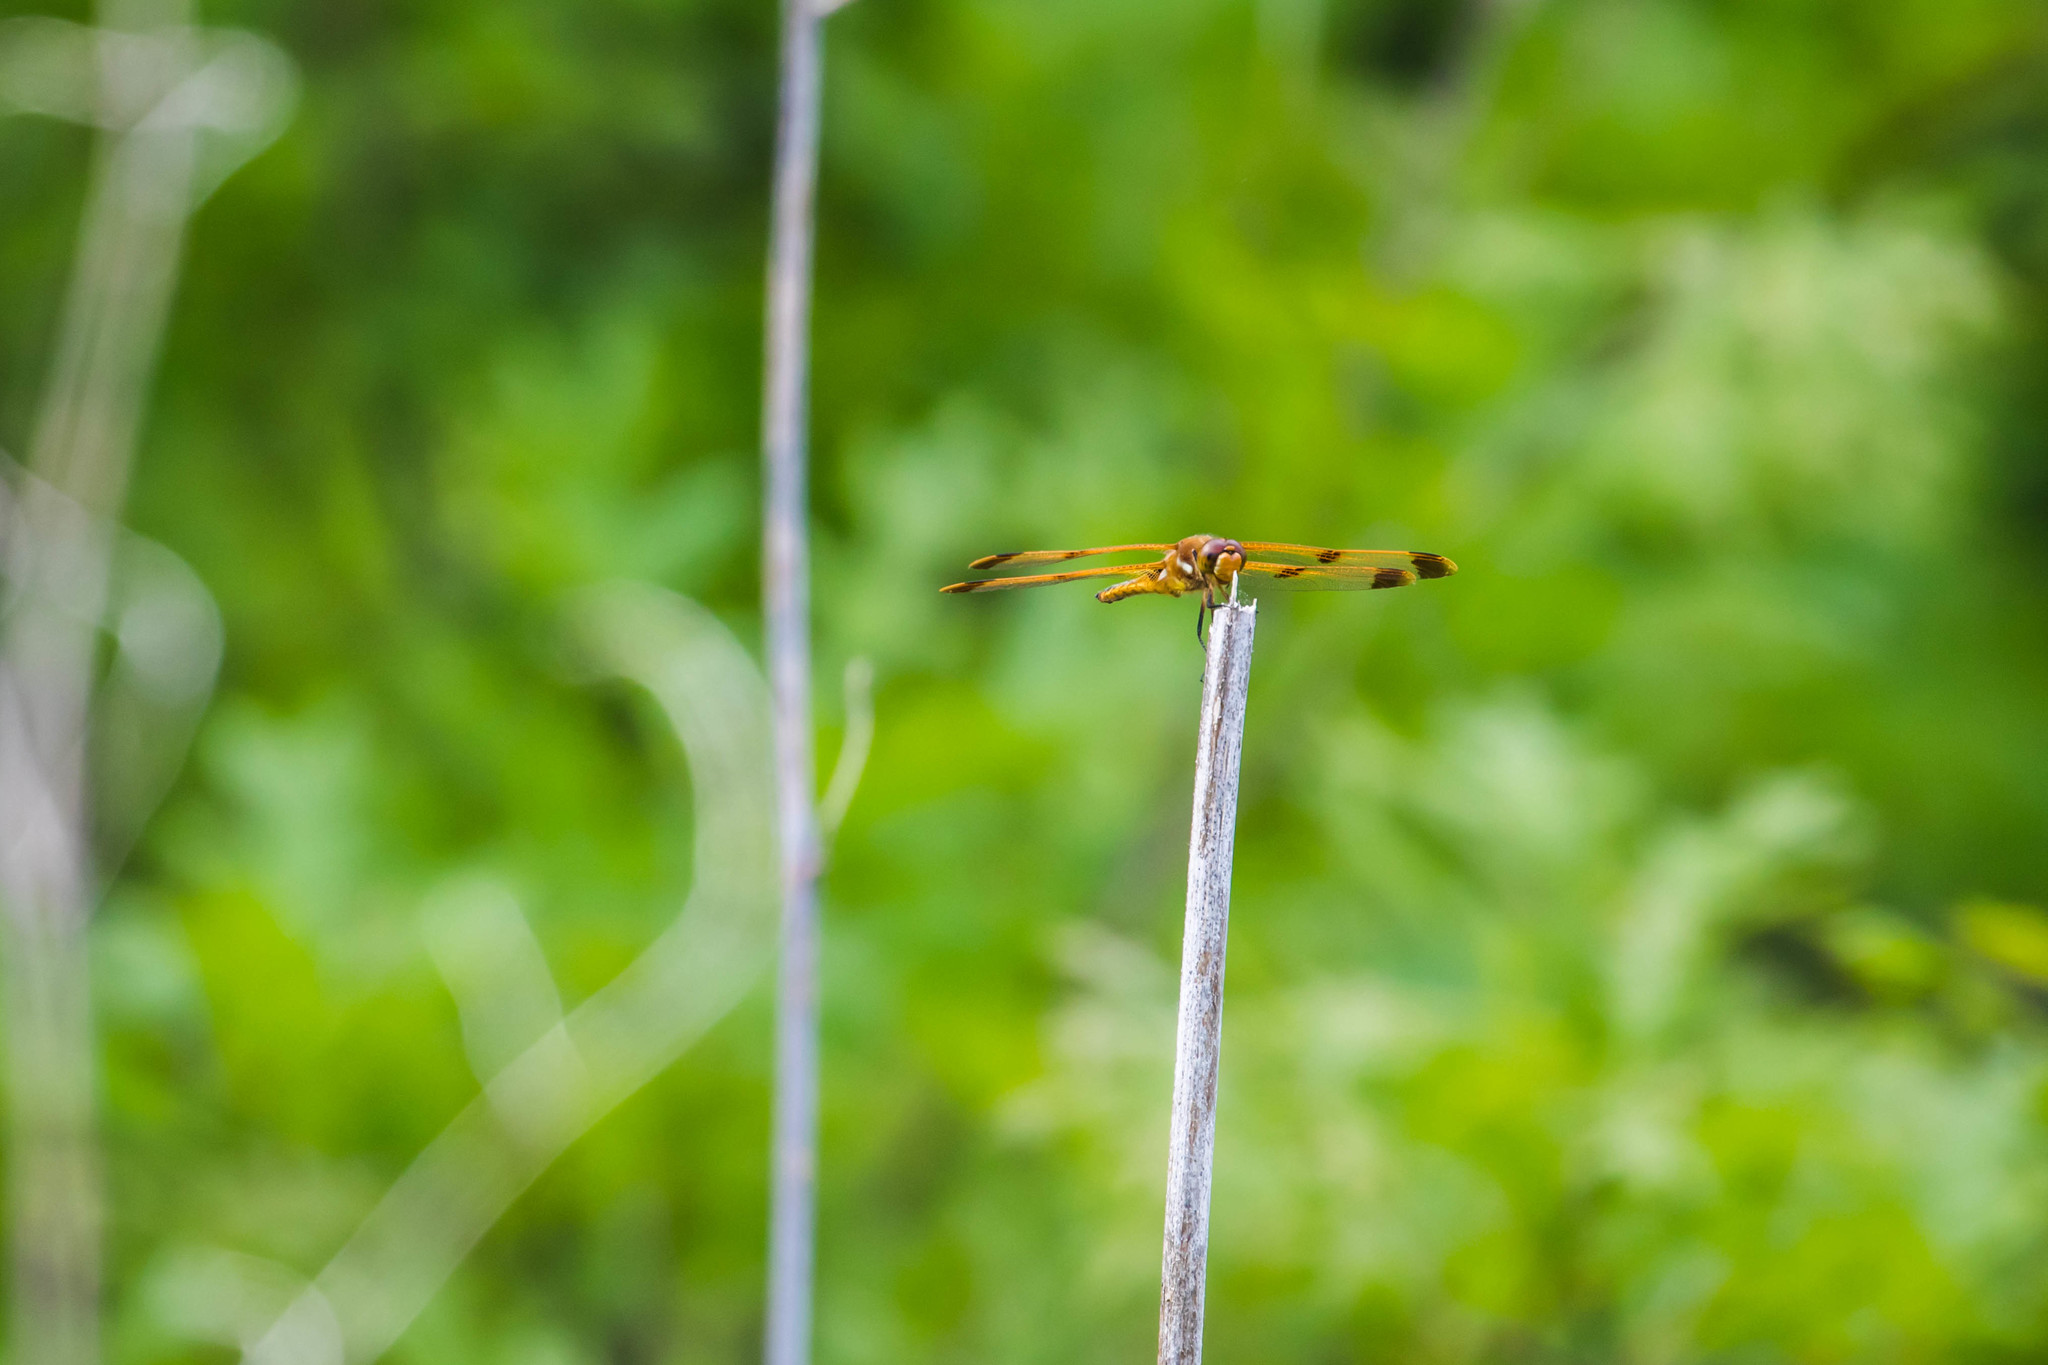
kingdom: Animalia
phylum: Arthropoda
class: Insecta
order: Odonata
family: Libellulidae
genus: Libellula
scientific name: Libellula semifasciata
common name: Painted skimmer
